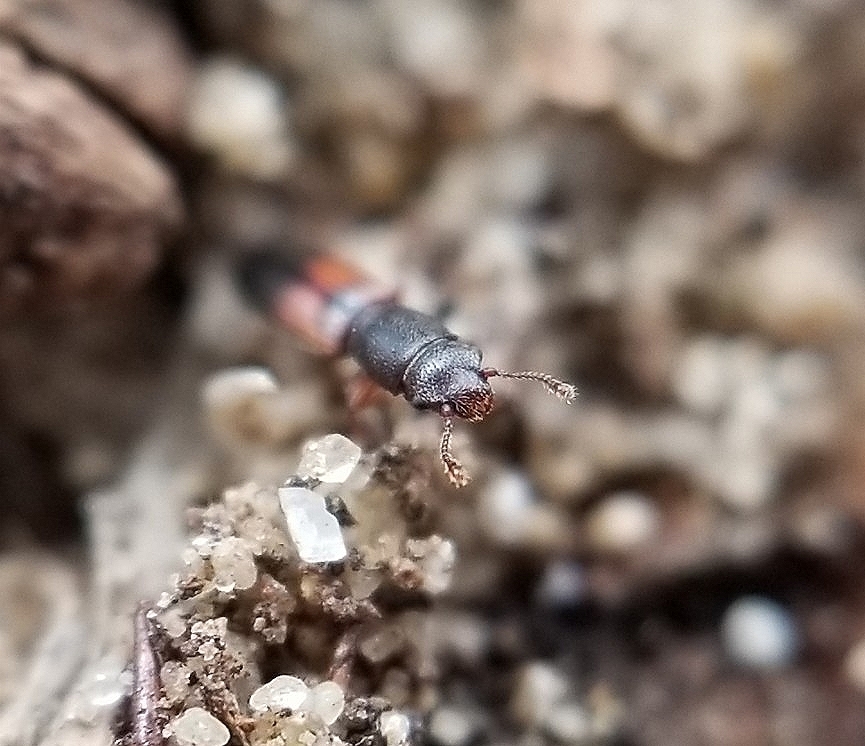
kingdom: Animalia
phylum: Arthropoda
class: Insecta
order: Coleoptera
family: Monotomidae
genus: Hesperobaenus
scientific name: Hesperobaenus abbreviatus
